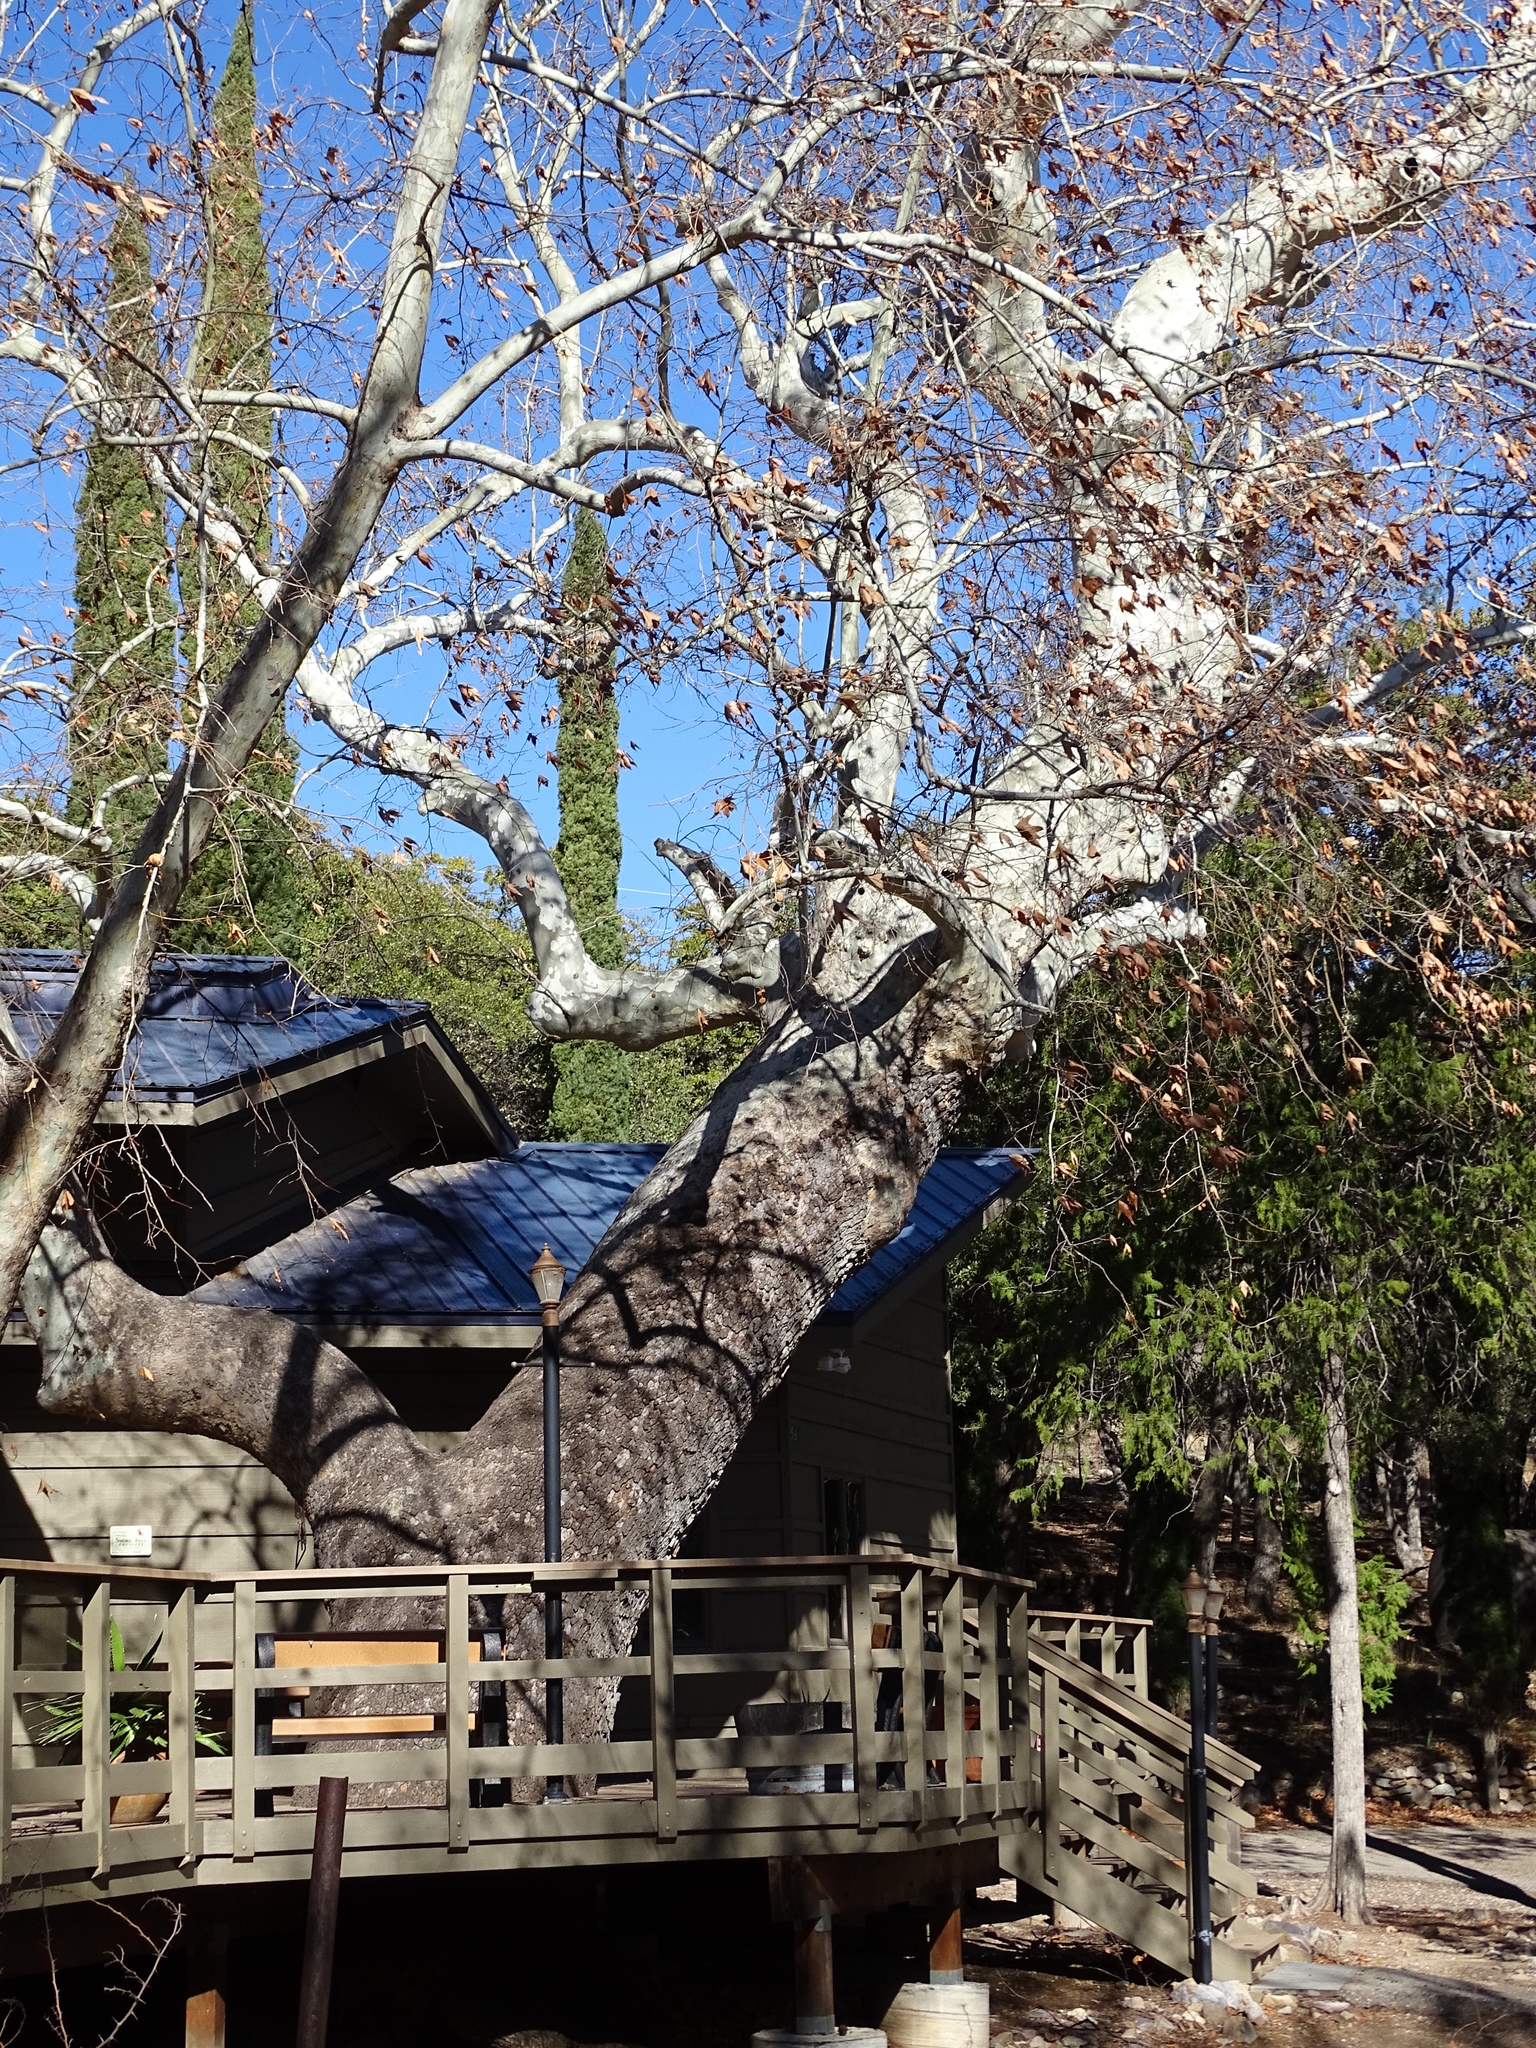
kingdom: Plantae
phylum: Tracheophyta
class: Magnoliopsida
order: Proteales
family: Platanaceae
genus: Platanus
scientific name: Platanus wrightii
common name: Arizona sycamore
